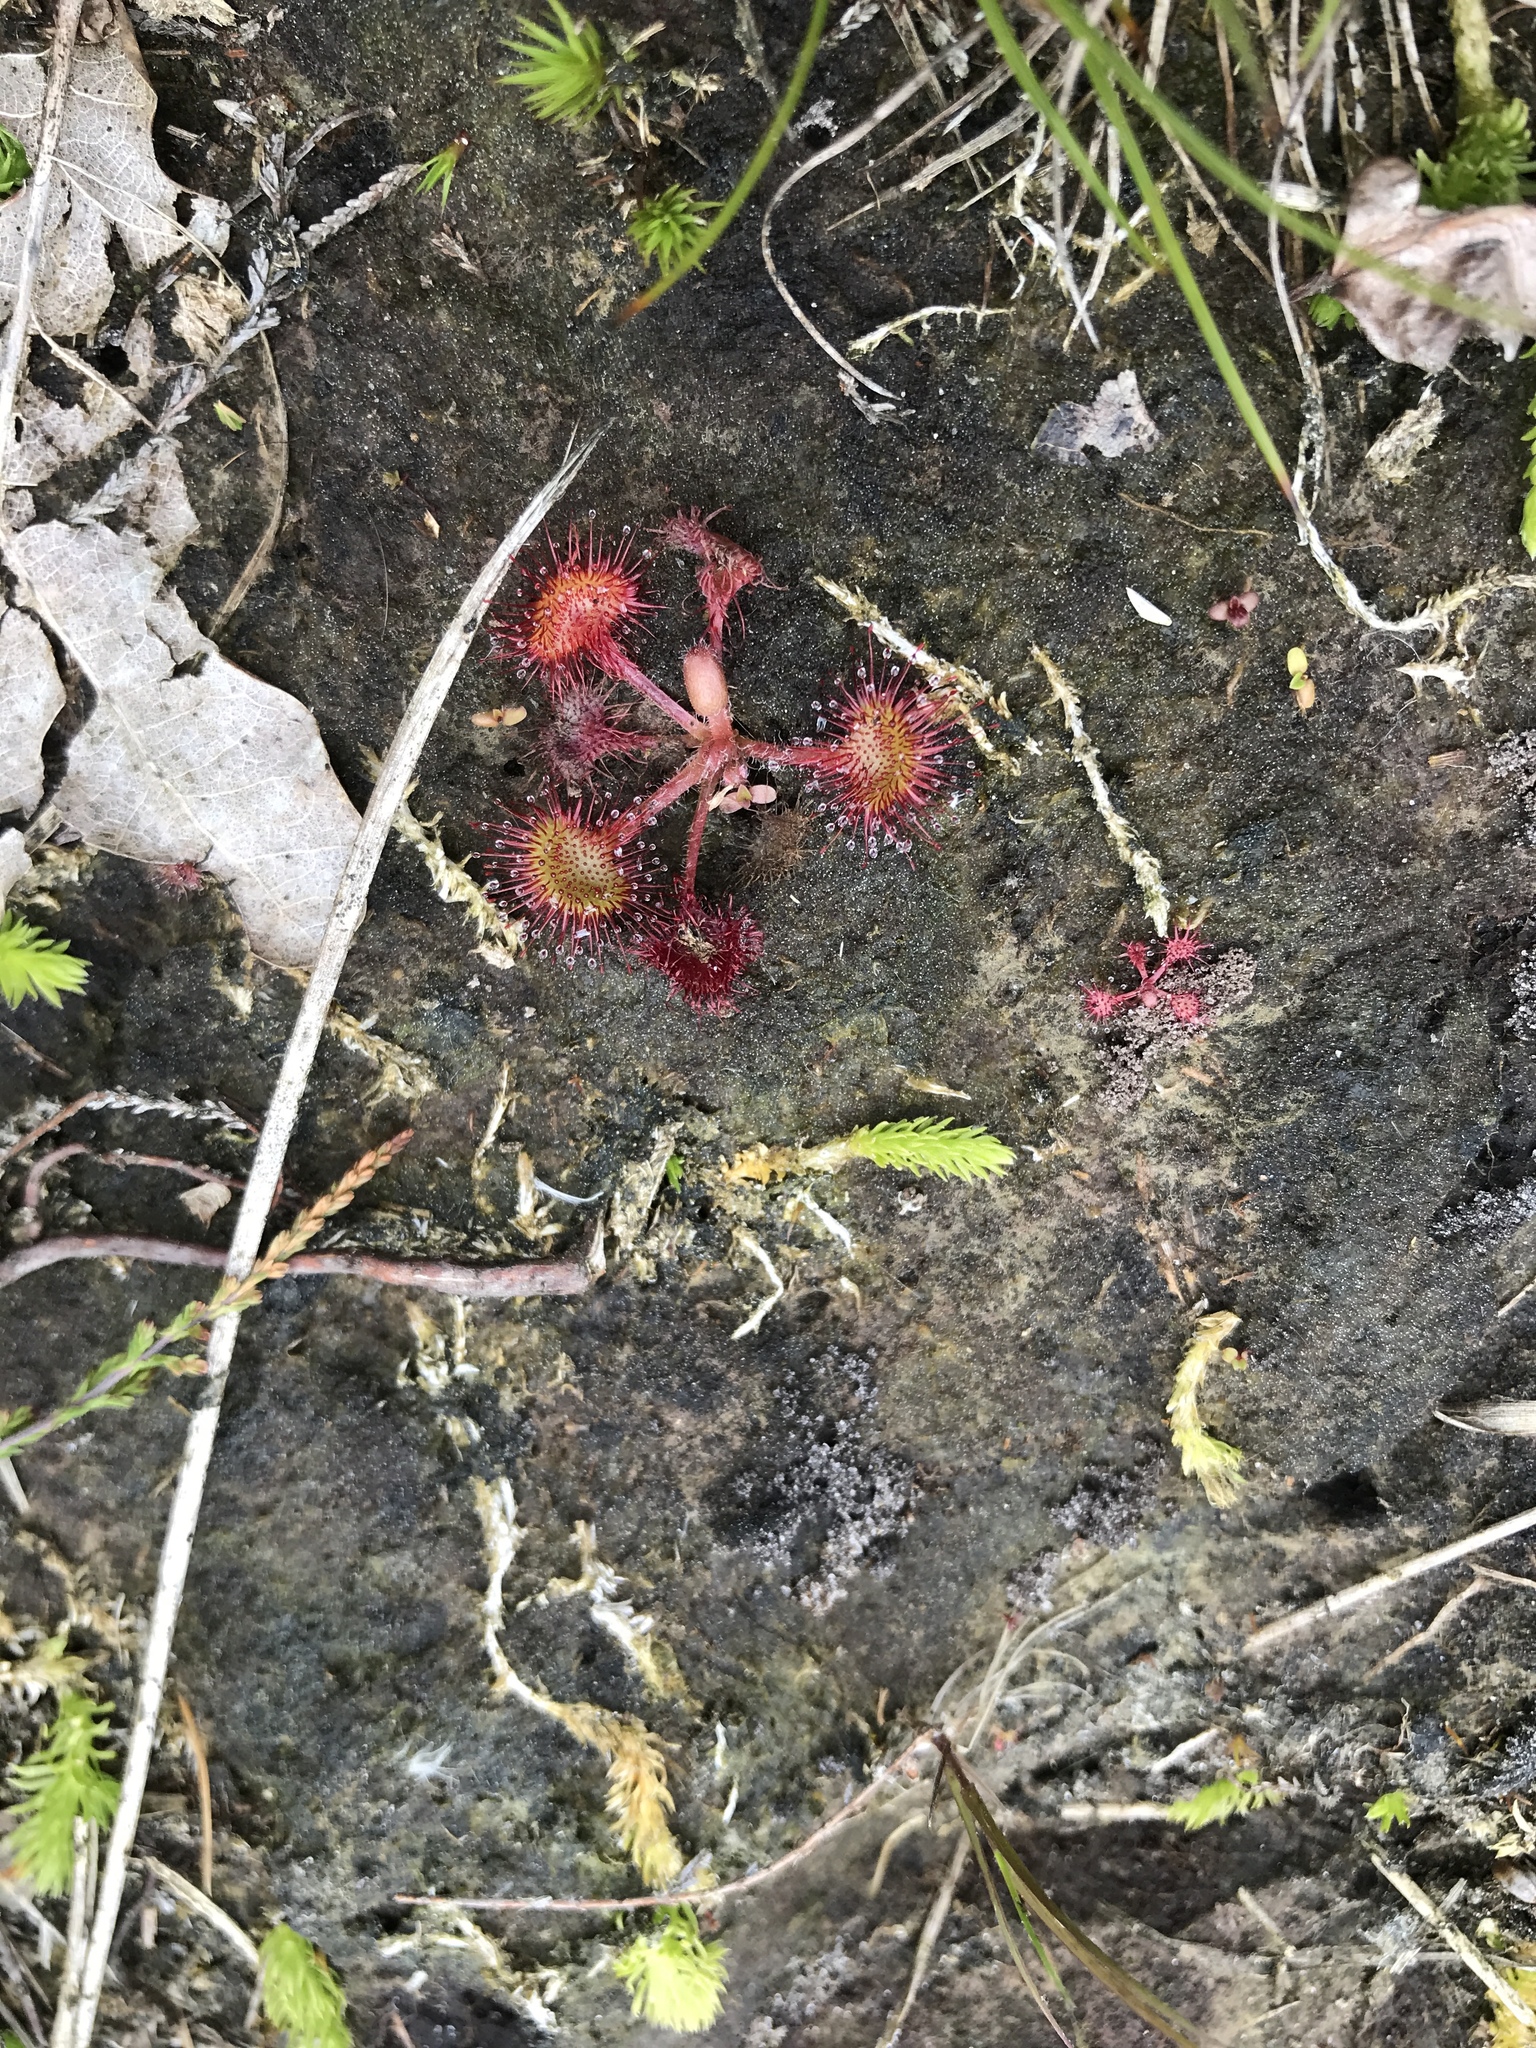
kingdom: Plantae
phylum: Tracheophyta
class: Magnoliopsida
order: Caryophyllales
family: Droseraceae
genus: Drosera
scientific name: Drosera rotundifolia
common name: Round-leaved sundew
